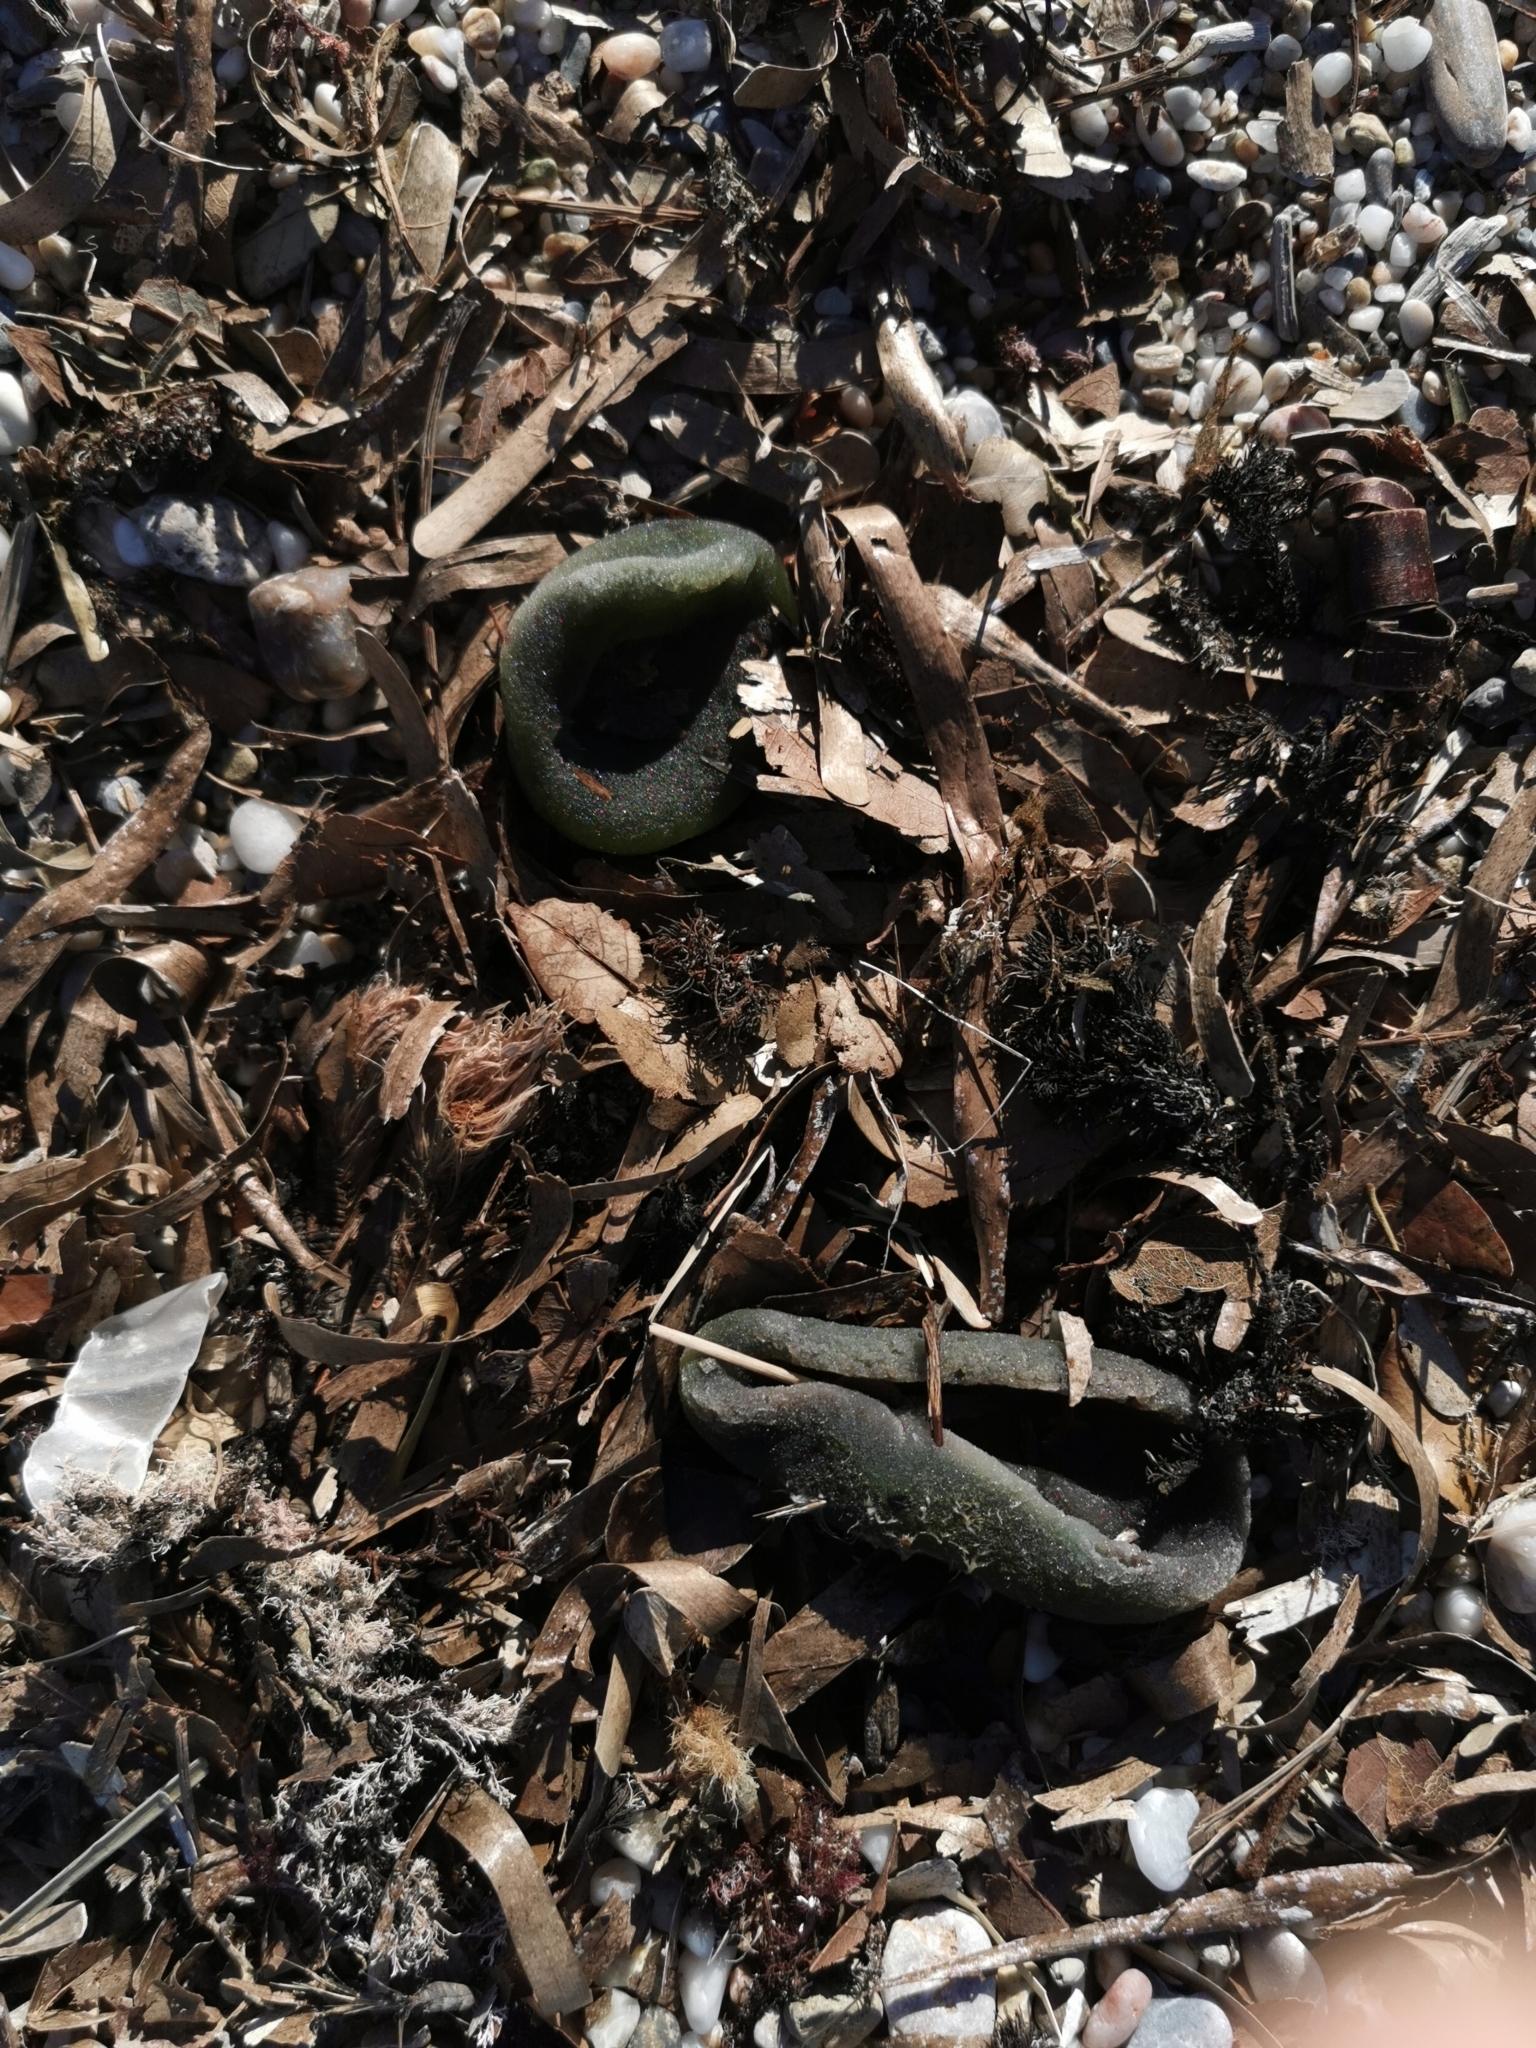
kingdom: Plantae
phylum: Chlorophyta
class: Ulvophyceae
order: Bryopsidales
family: Codiaceae
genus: Codium
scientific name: Codium bursa
